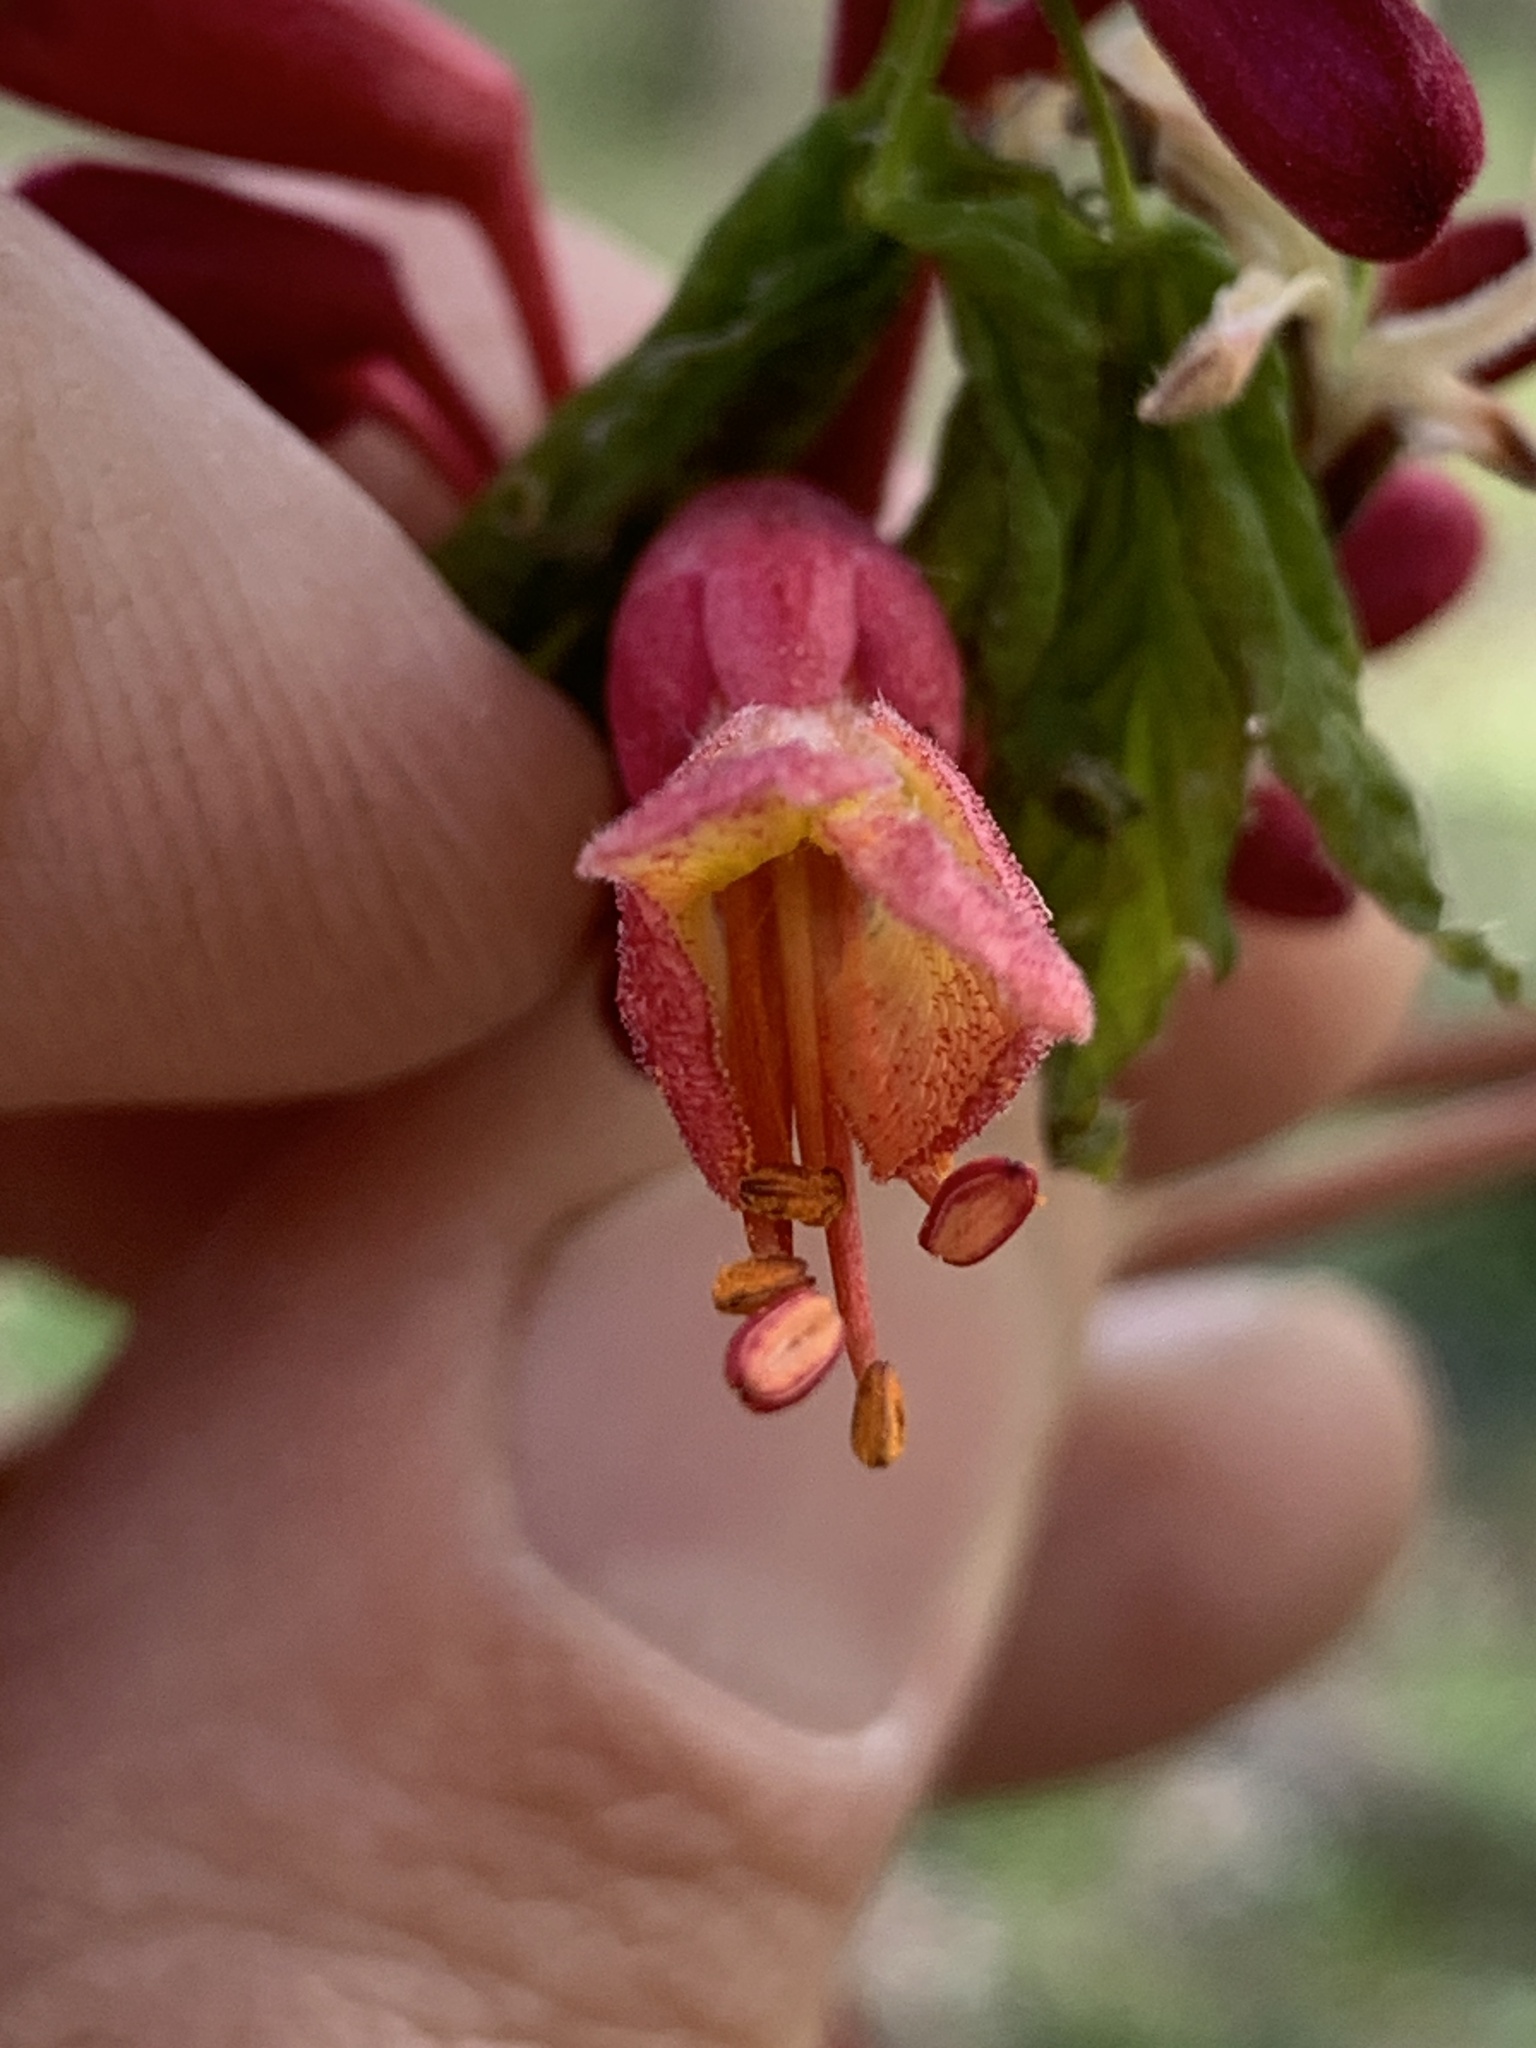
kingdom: Plantae
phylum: Tracheophyta
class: Magnoliopsida
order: Sapindales
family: Sapindaceae
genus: Aesculus
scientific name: Aesculus pavia
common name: Red buckeye
